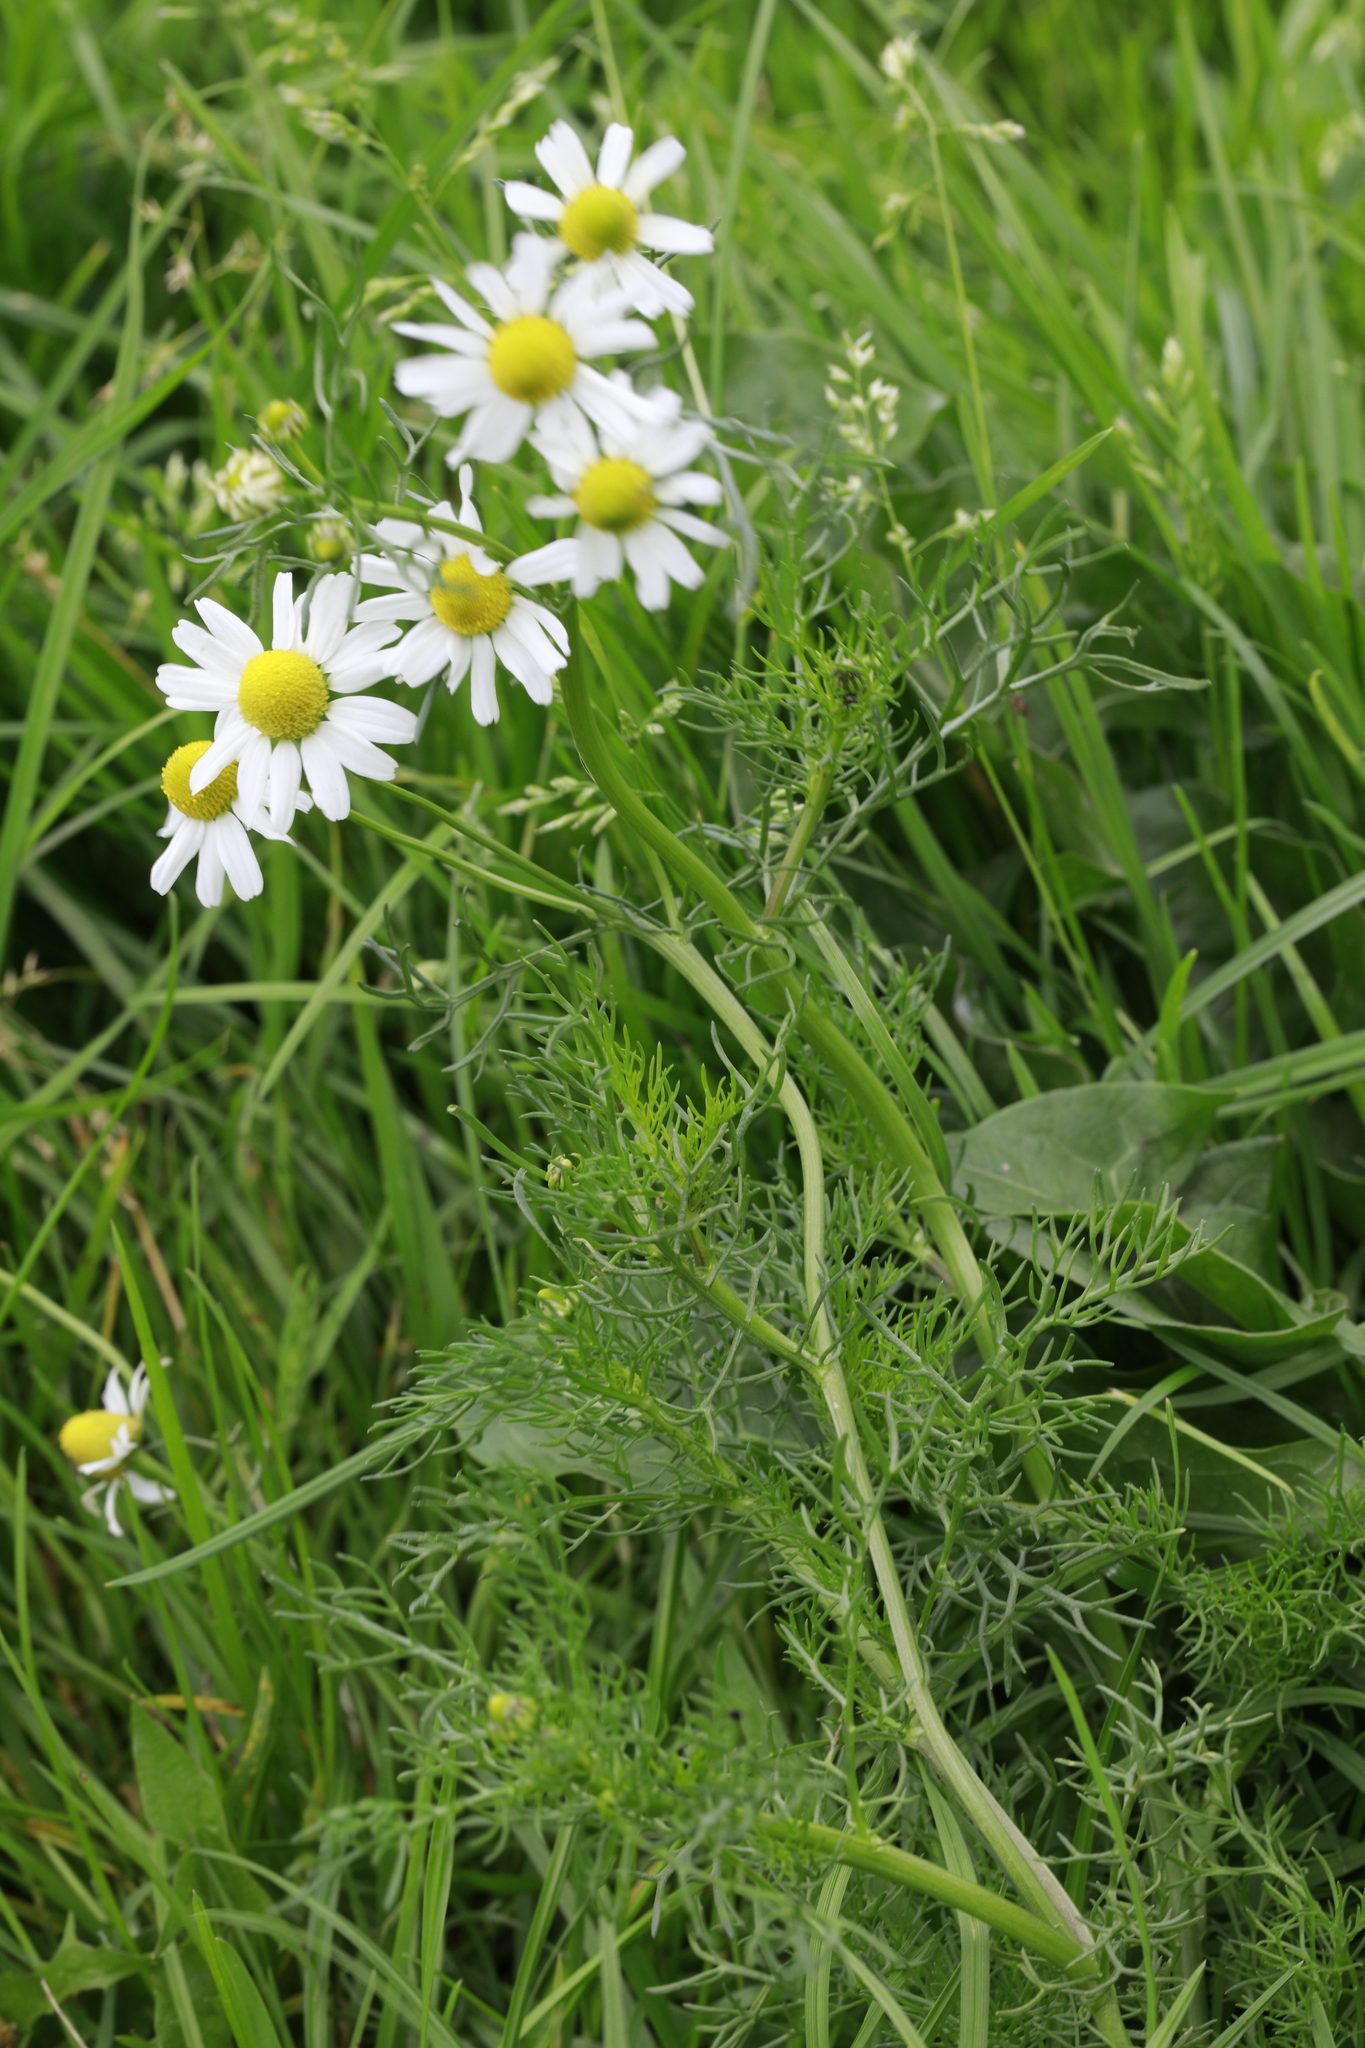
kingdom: Plantae
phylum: Tracheophyta
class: Magnoliopsida
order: Asterales
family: Asteraceae
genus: Matricaria
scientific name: Matricaria chamomilla
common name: Scented mayweed
